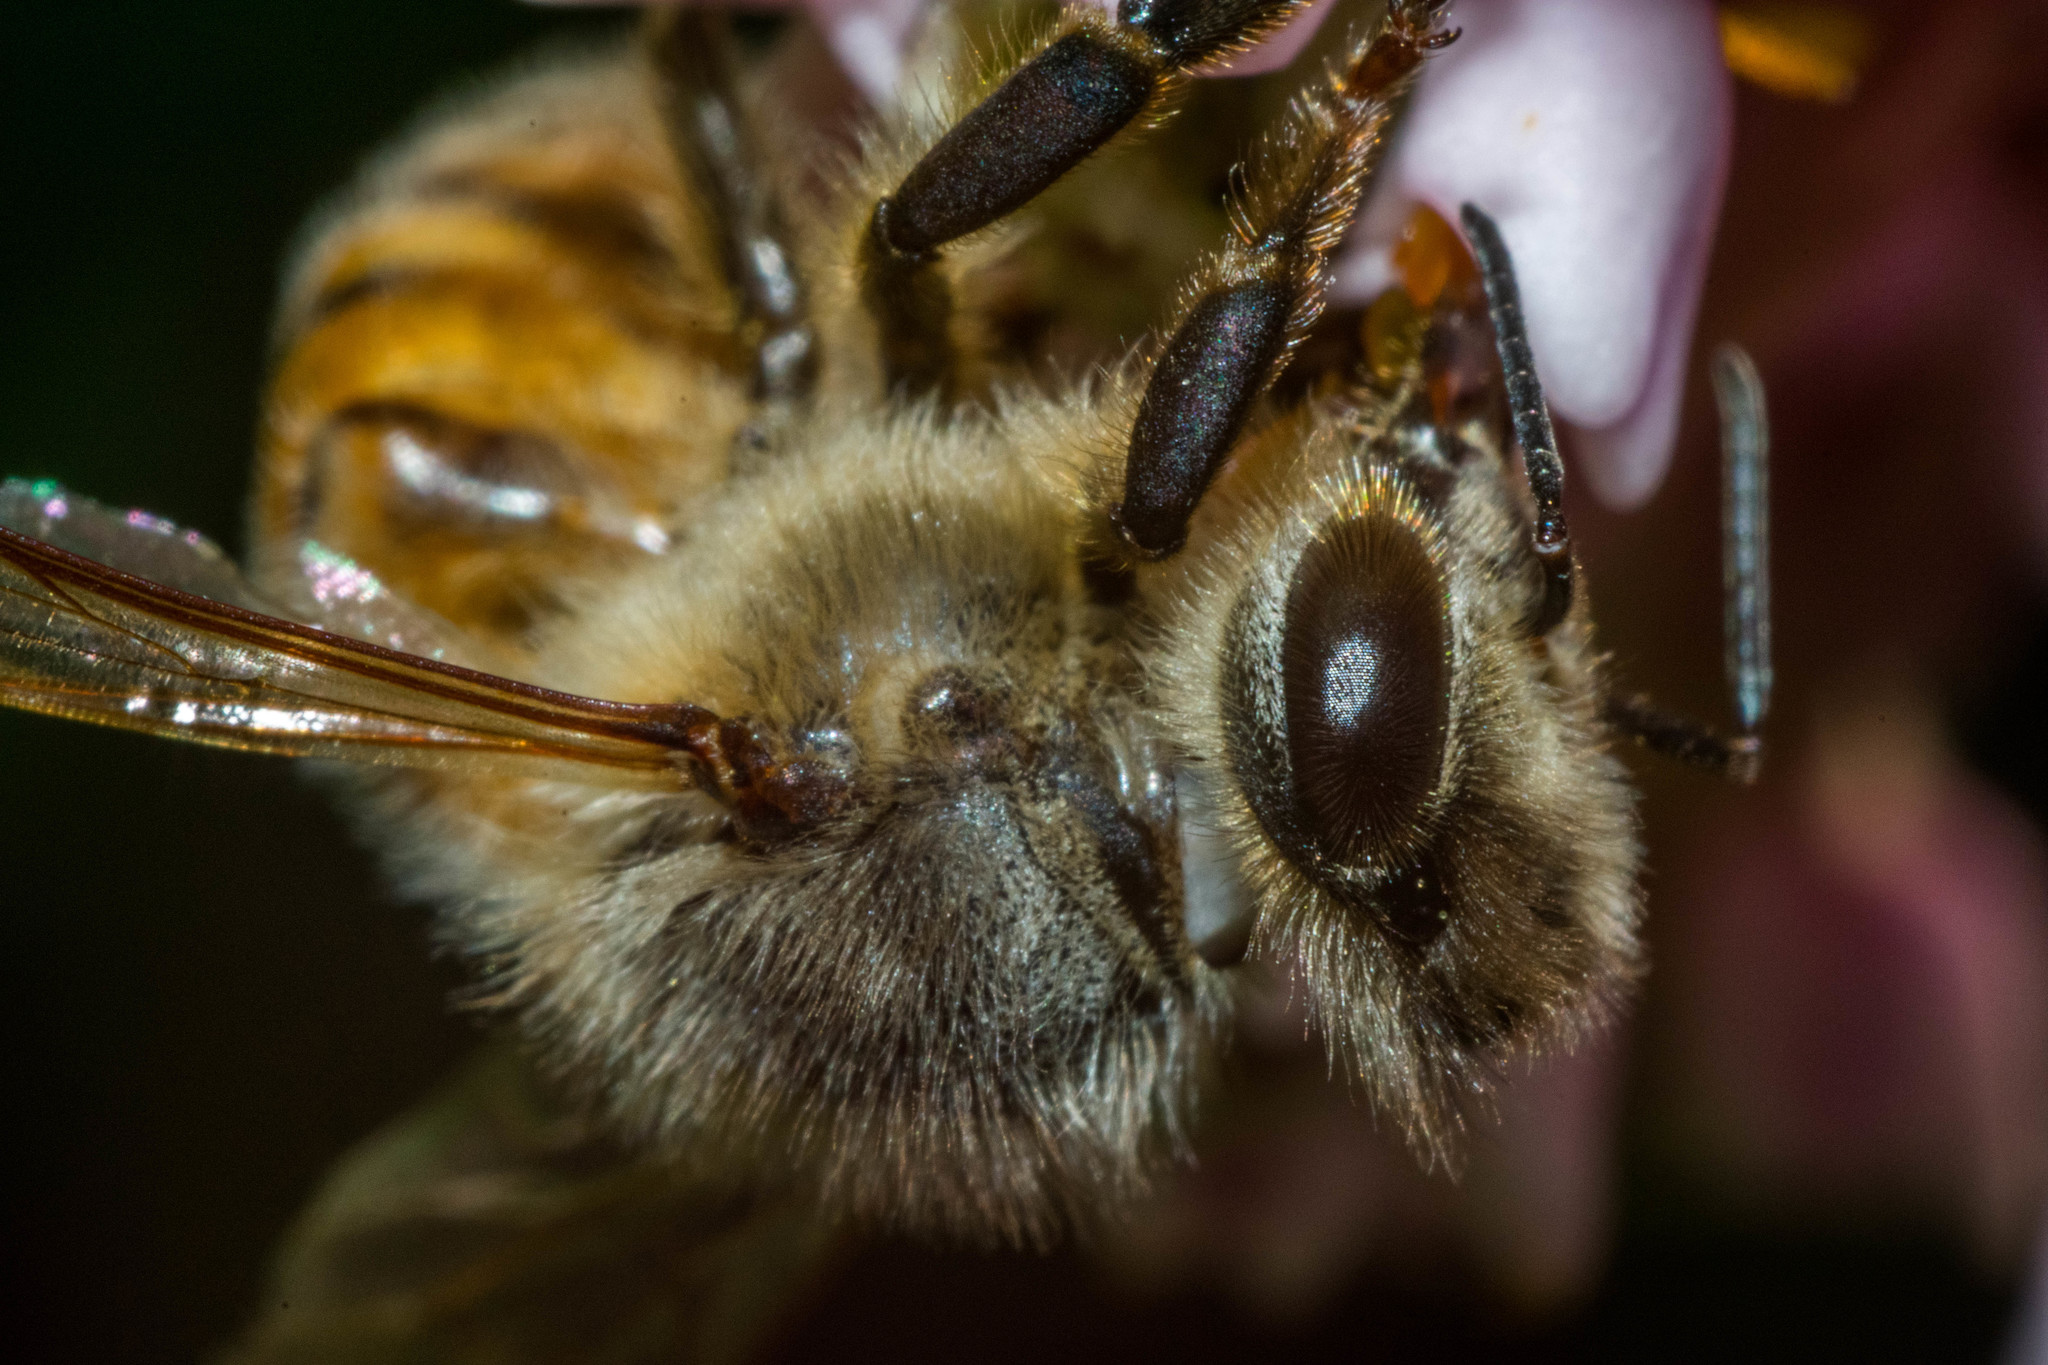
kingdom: Animalia
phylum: Arthropoda
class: Insecta
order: Hymenoptera
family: Apidae
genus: Apis
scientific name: Apis mellifera
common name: Honey bee
